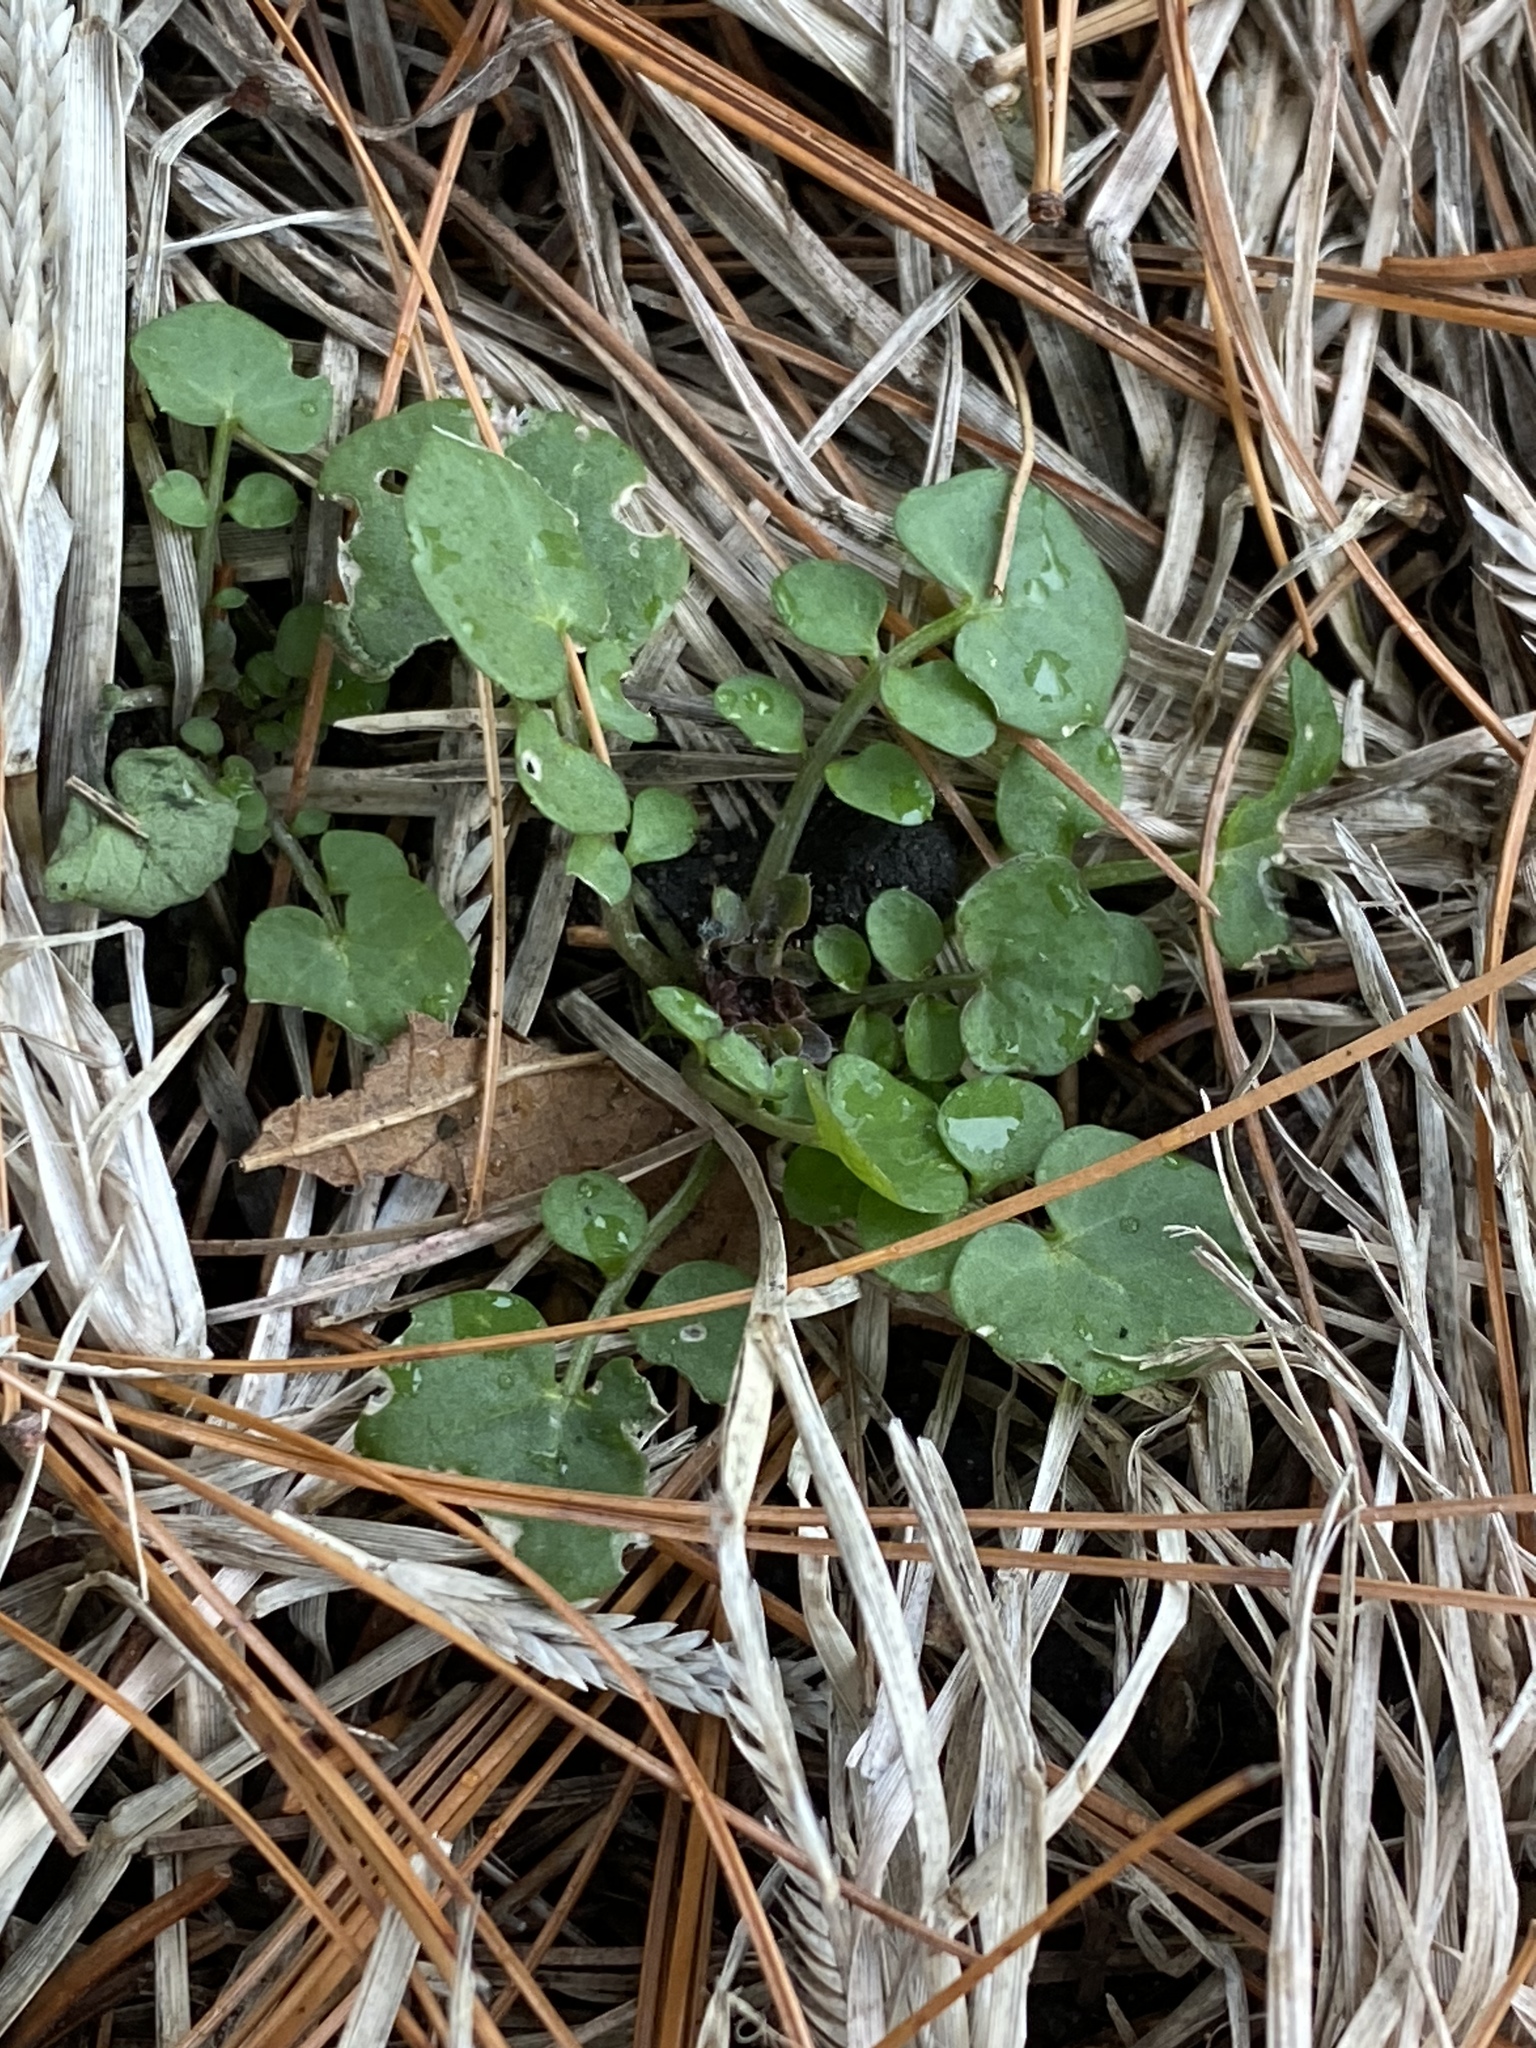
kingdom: Plantae
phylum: Tracheophyta
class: Magnoliopsida
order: Brassicales
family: Brassicaceae
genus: Cardamine
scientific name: Cardamine hirsuta
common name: Hairy bittercress
